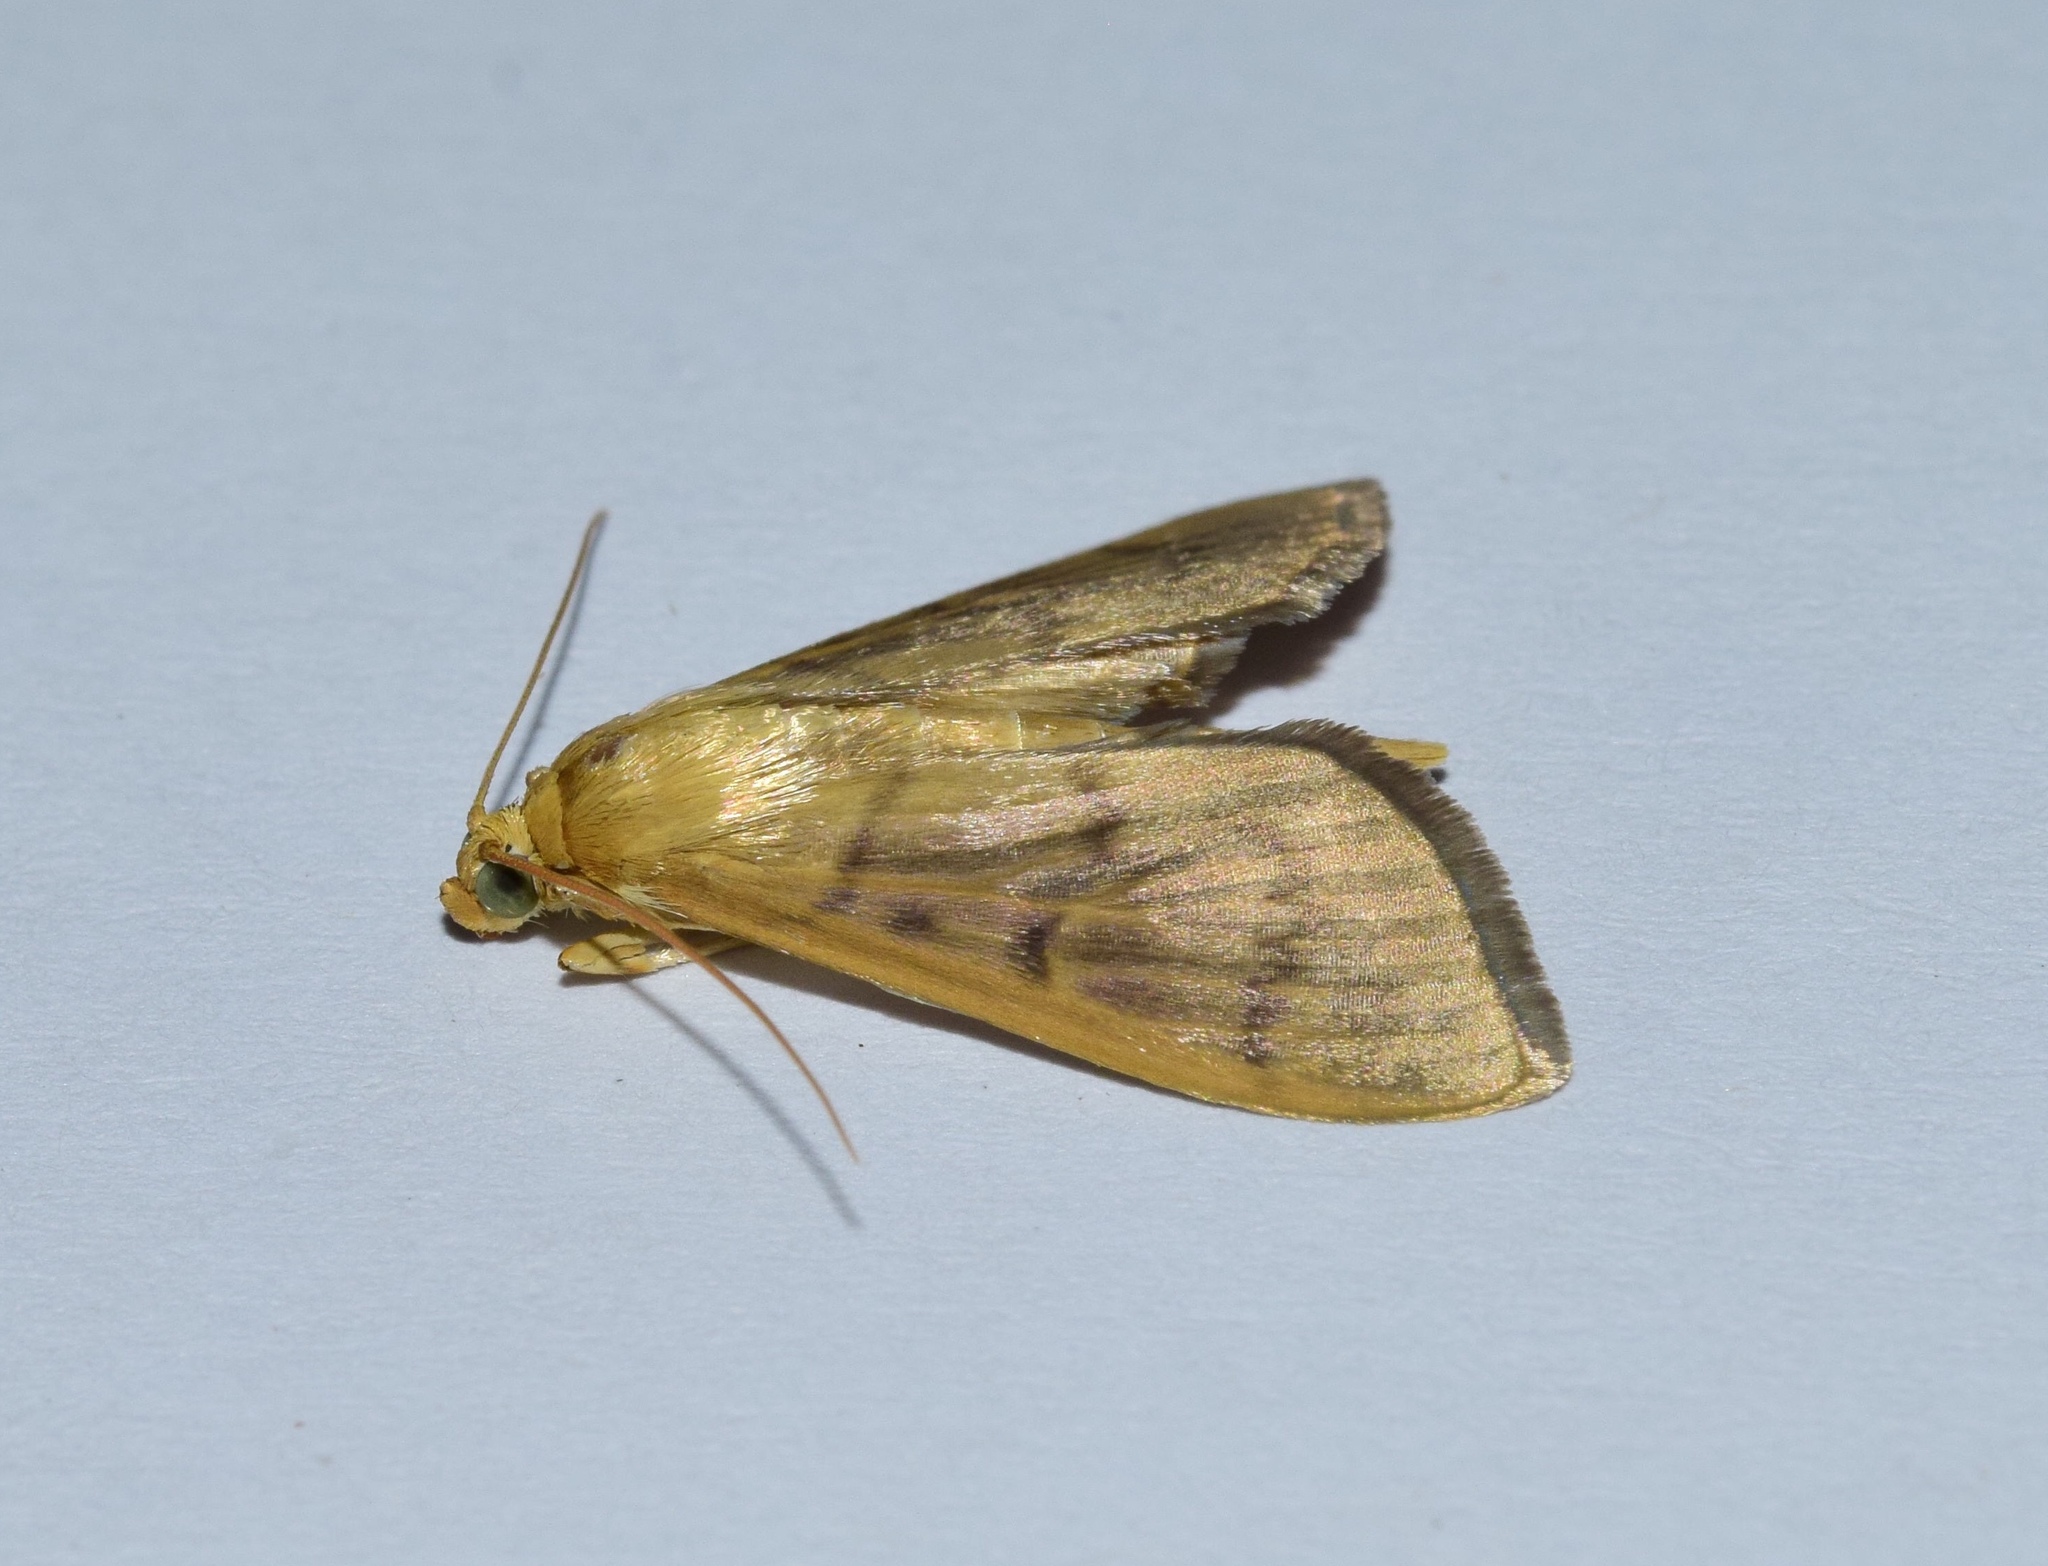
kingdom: Animalia
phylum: Arthropoda
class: Insecta
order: Lepidoptera
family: Crambidae
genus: Herpetogramma
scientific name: Herpetogramma phaeopteralis
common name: Dusky herpetogramma moth
